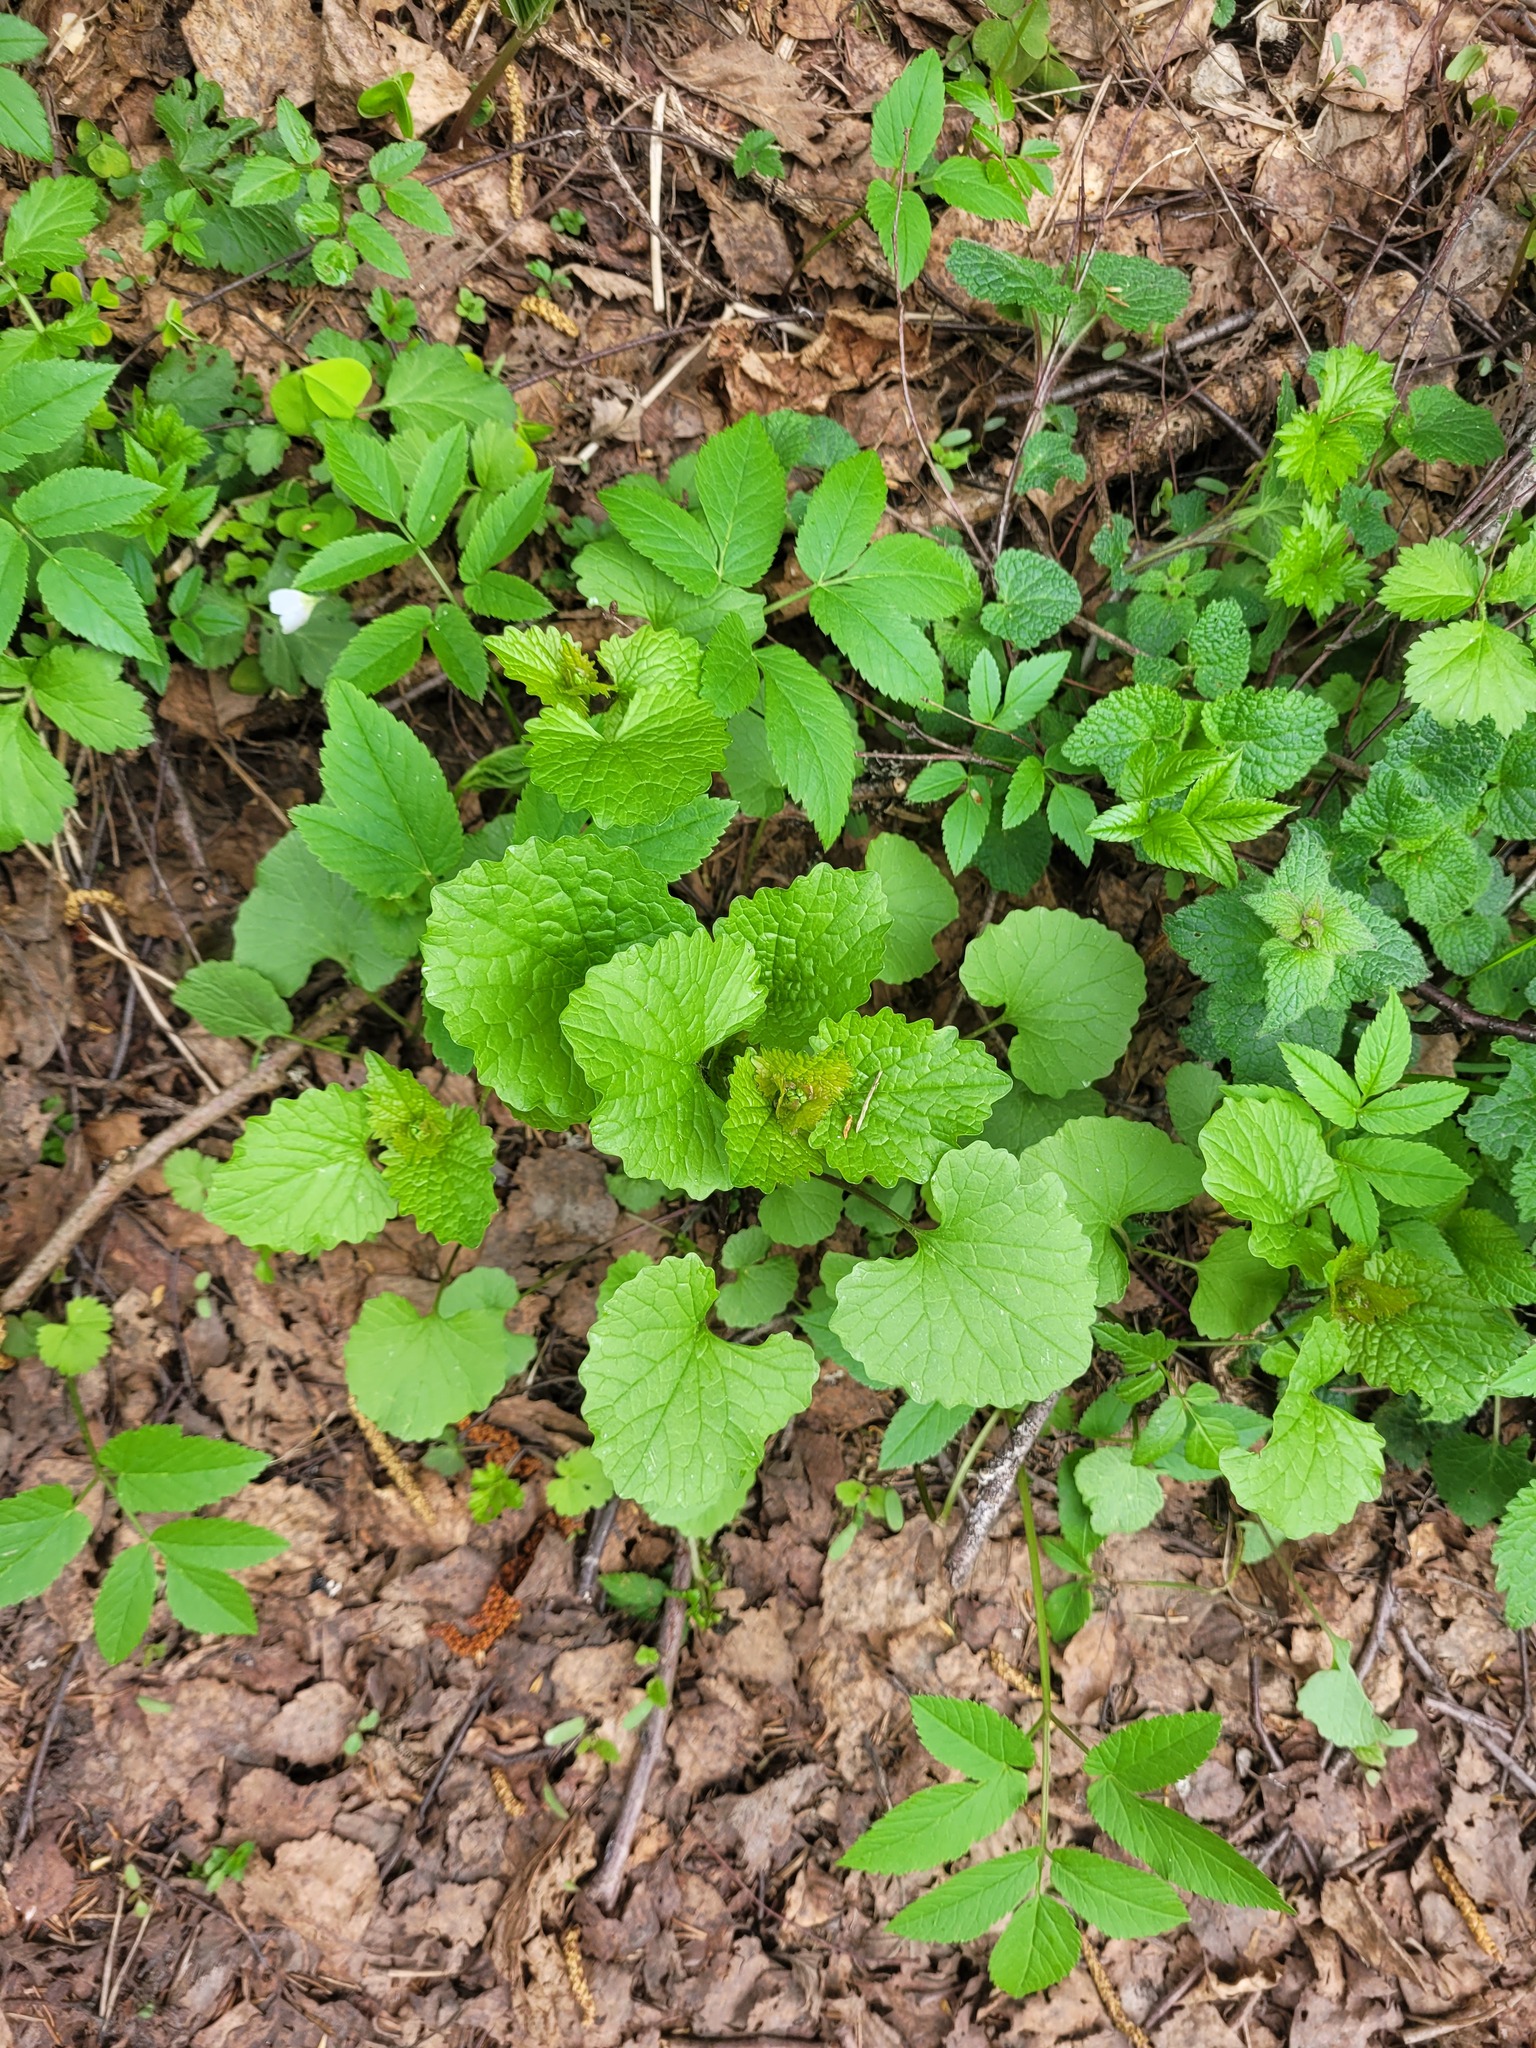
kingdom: Plantae
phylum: Tracheophyta
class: Magnoliopsida
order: Brassicales
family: Brassicaceae
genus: Alliaria
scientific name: Alliaria petiolata
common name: Garlic mustard
